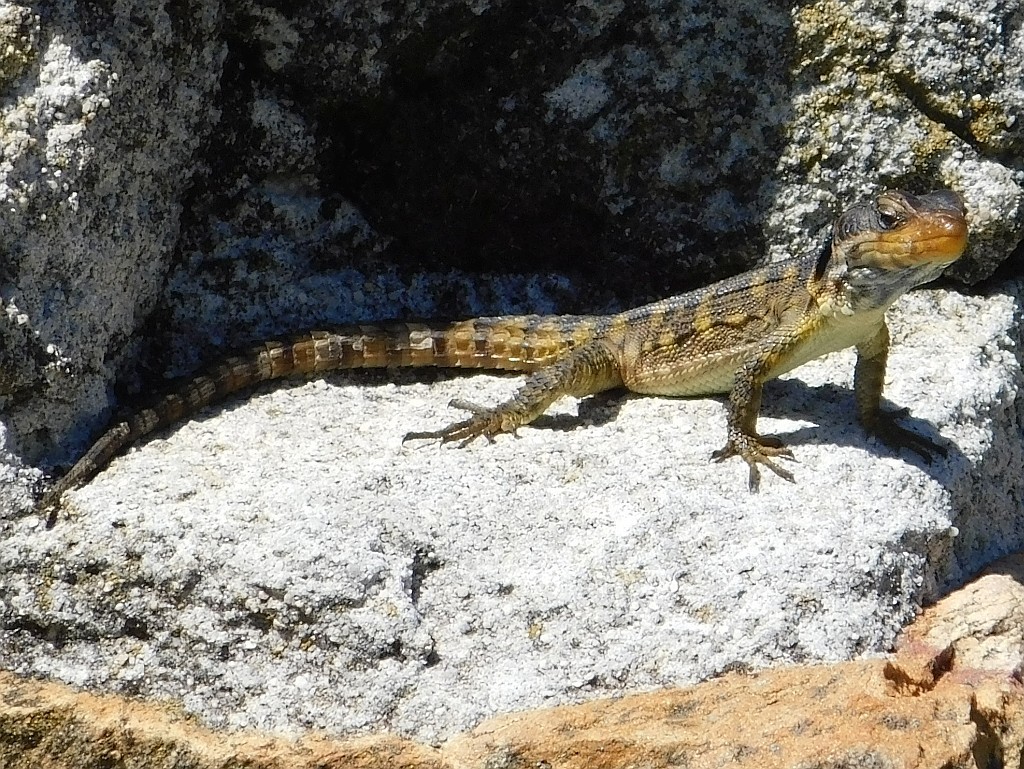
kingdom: Animalia
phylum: Chordata
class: Squamata
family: Cordylidae
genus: Pseudocordylus
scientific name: Pseudocordylus microlepidotus
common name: Cape crag lizard
